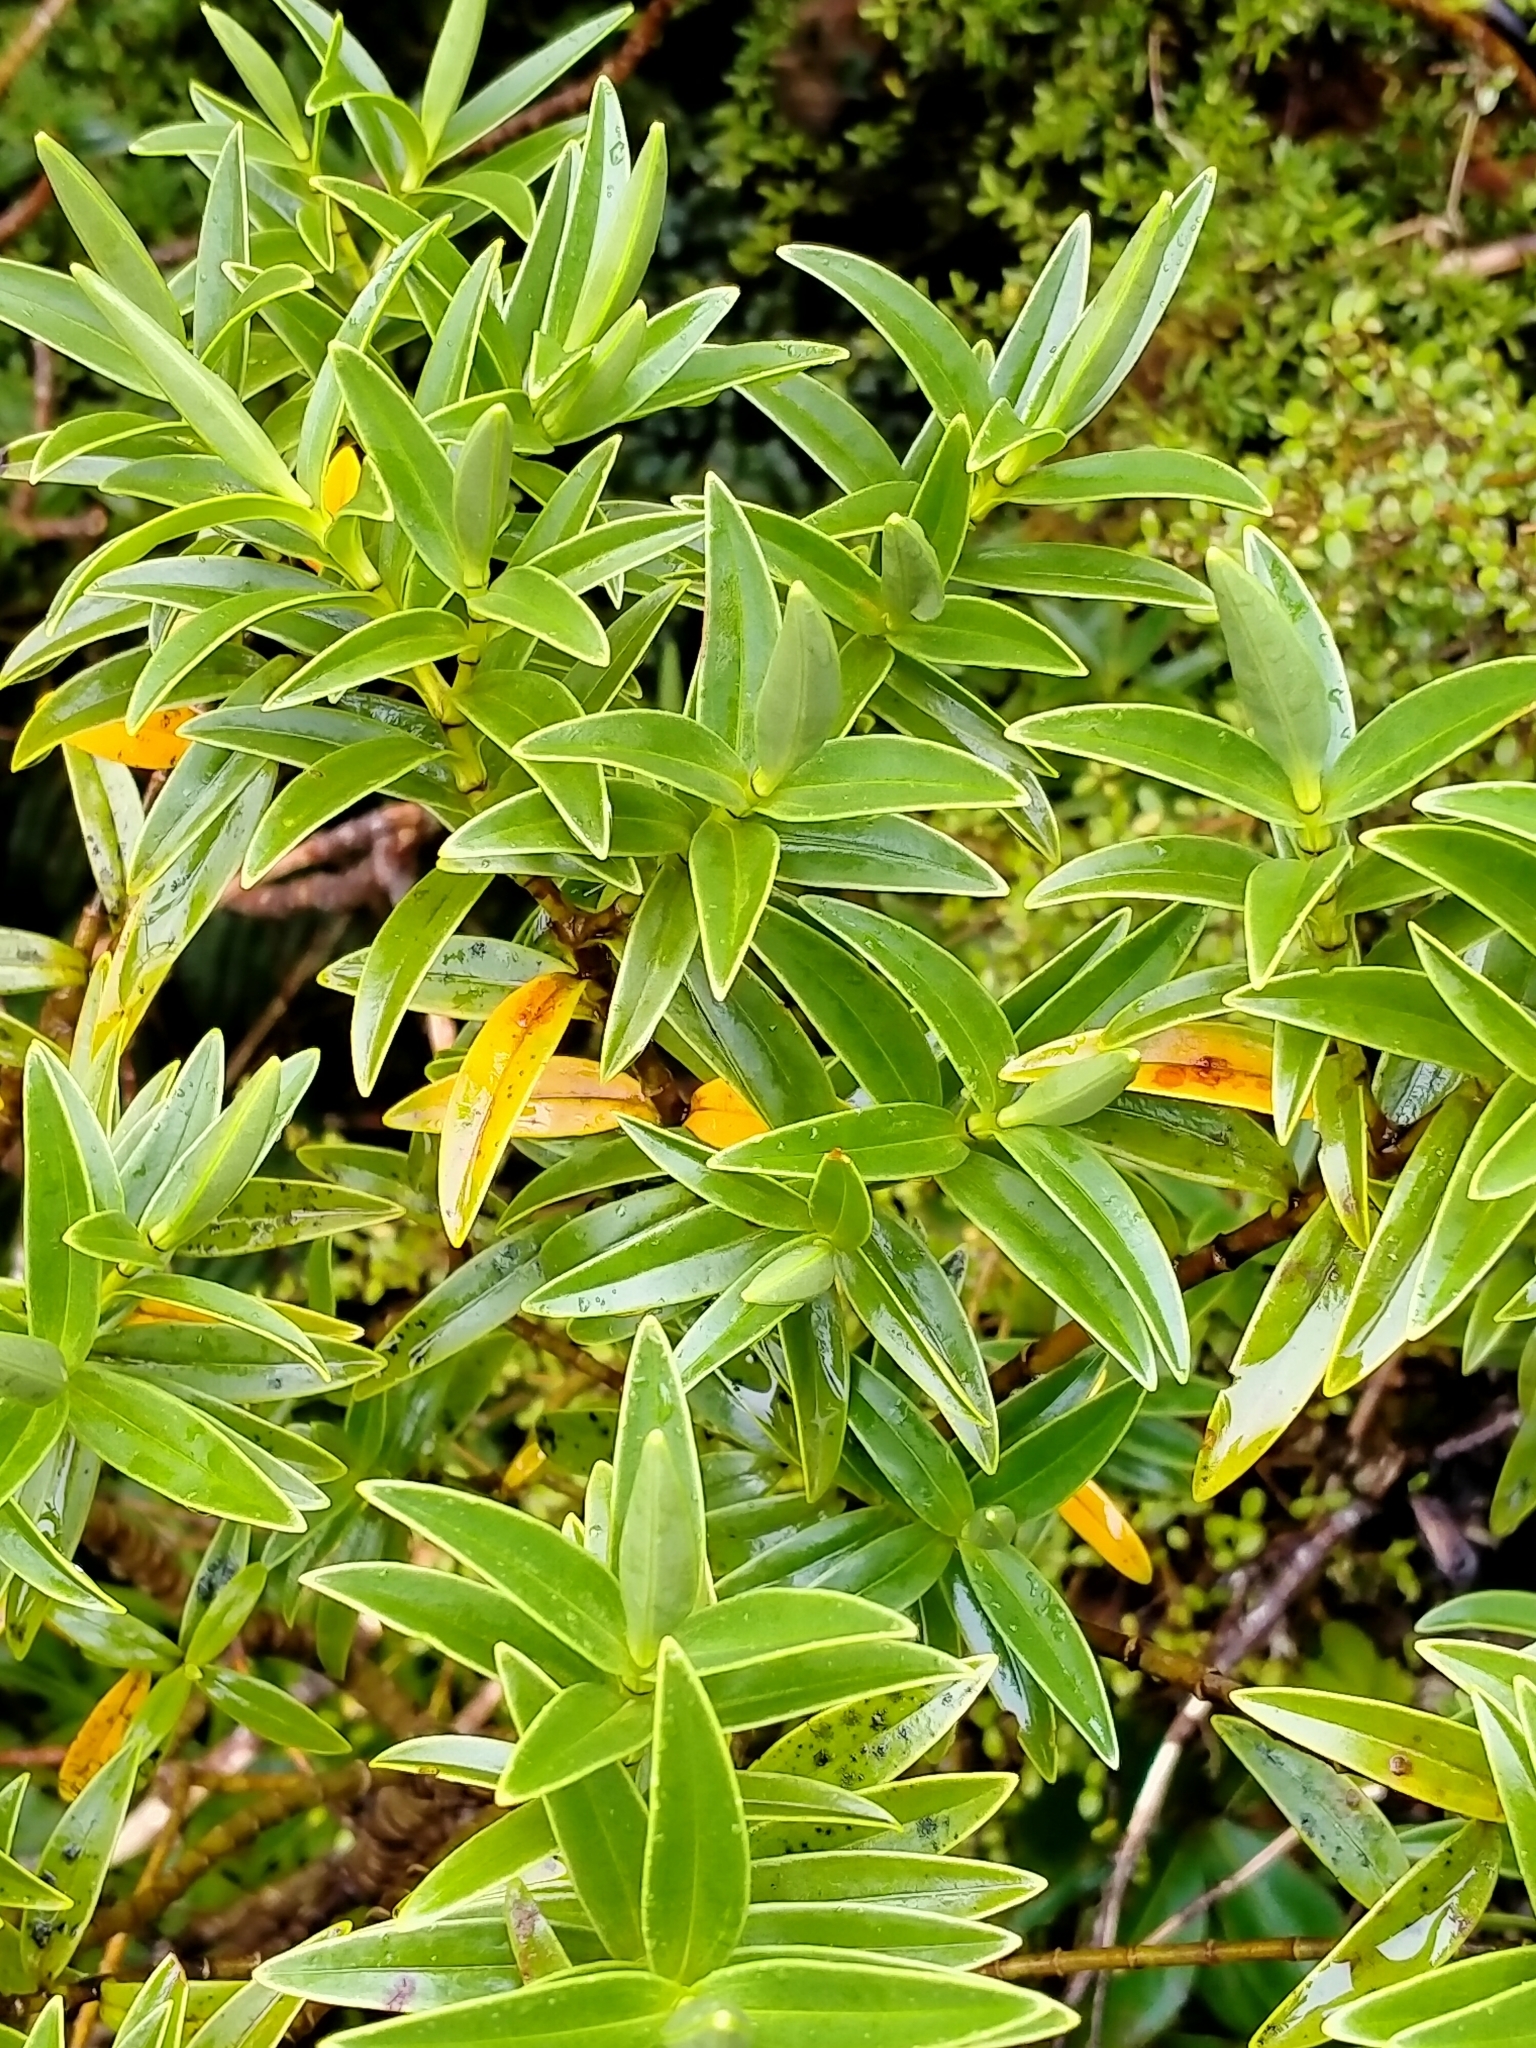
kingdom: Plantae
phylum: Tracheophyta
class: Magnoliopsida
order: Lamiales
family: Plantaginaceae
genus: Veronica
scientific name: Veronica subalpina
